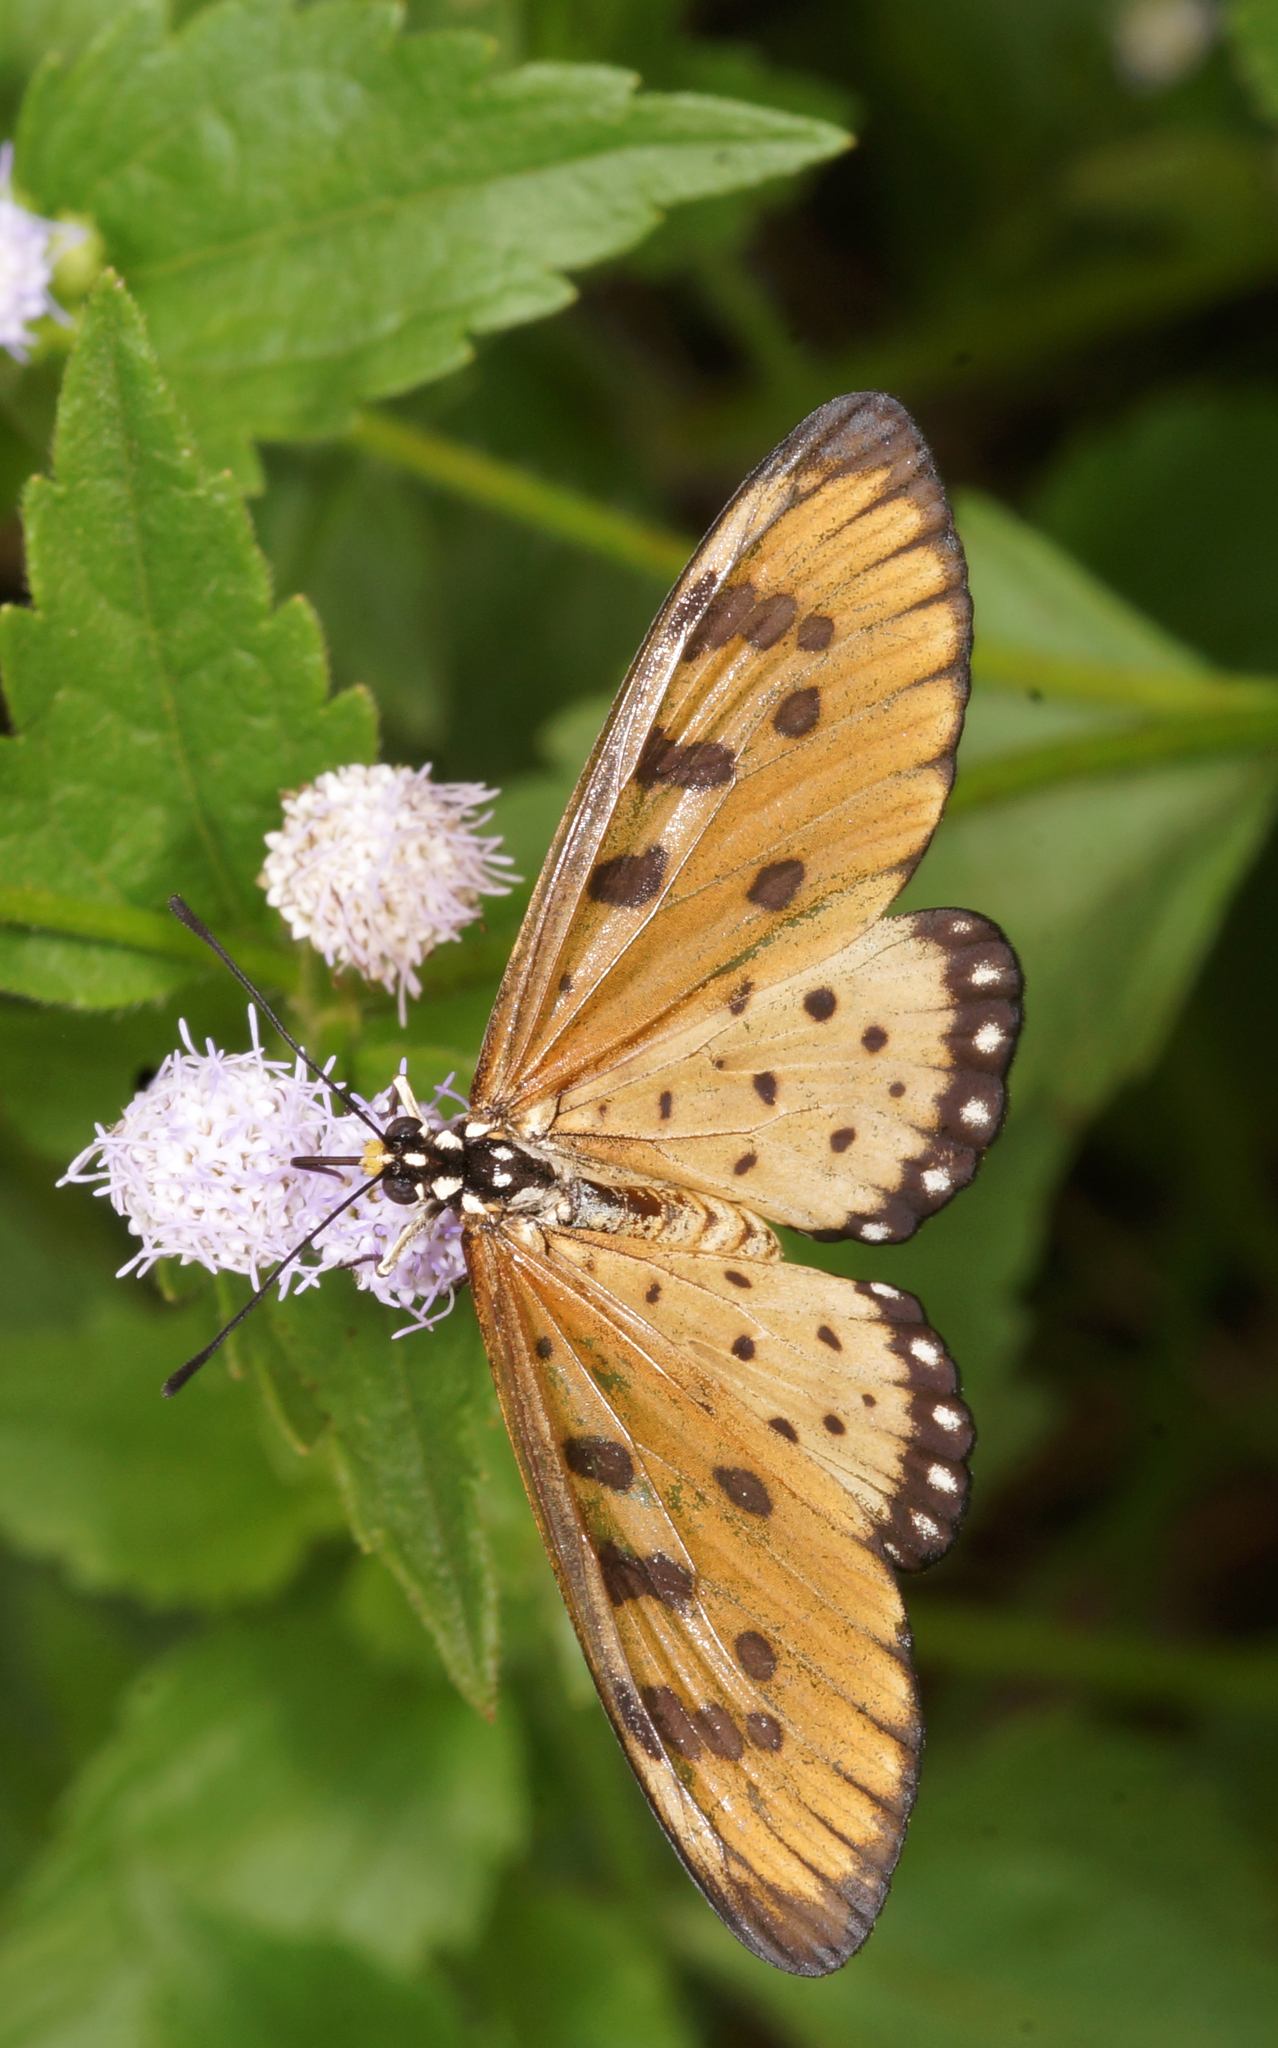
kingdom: Animalia
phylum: Arthropoda
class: Insecta
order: Lepidoptera
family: Nymphalidae
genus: Acraea
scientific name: Acraea terpsicore
